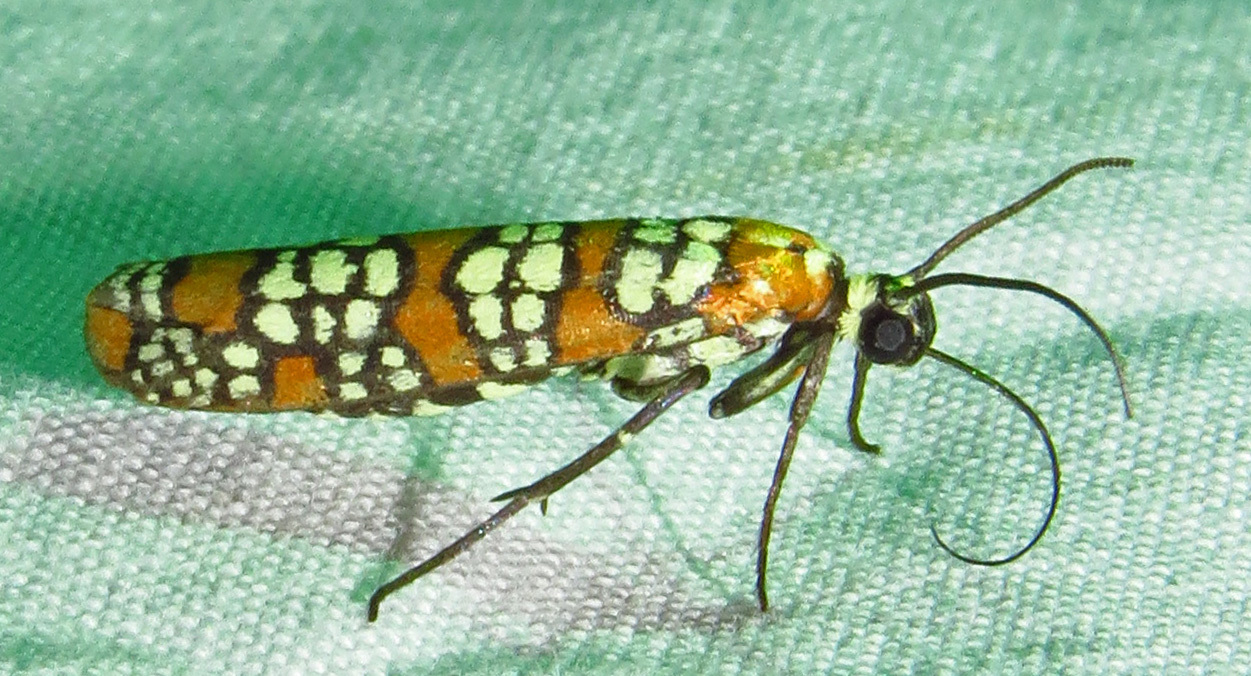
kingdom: Animalia
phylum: Arthropoda
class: Insecta
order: Lepidoptera
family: Attevidae
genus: Atteva
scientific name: Atteva punctella
